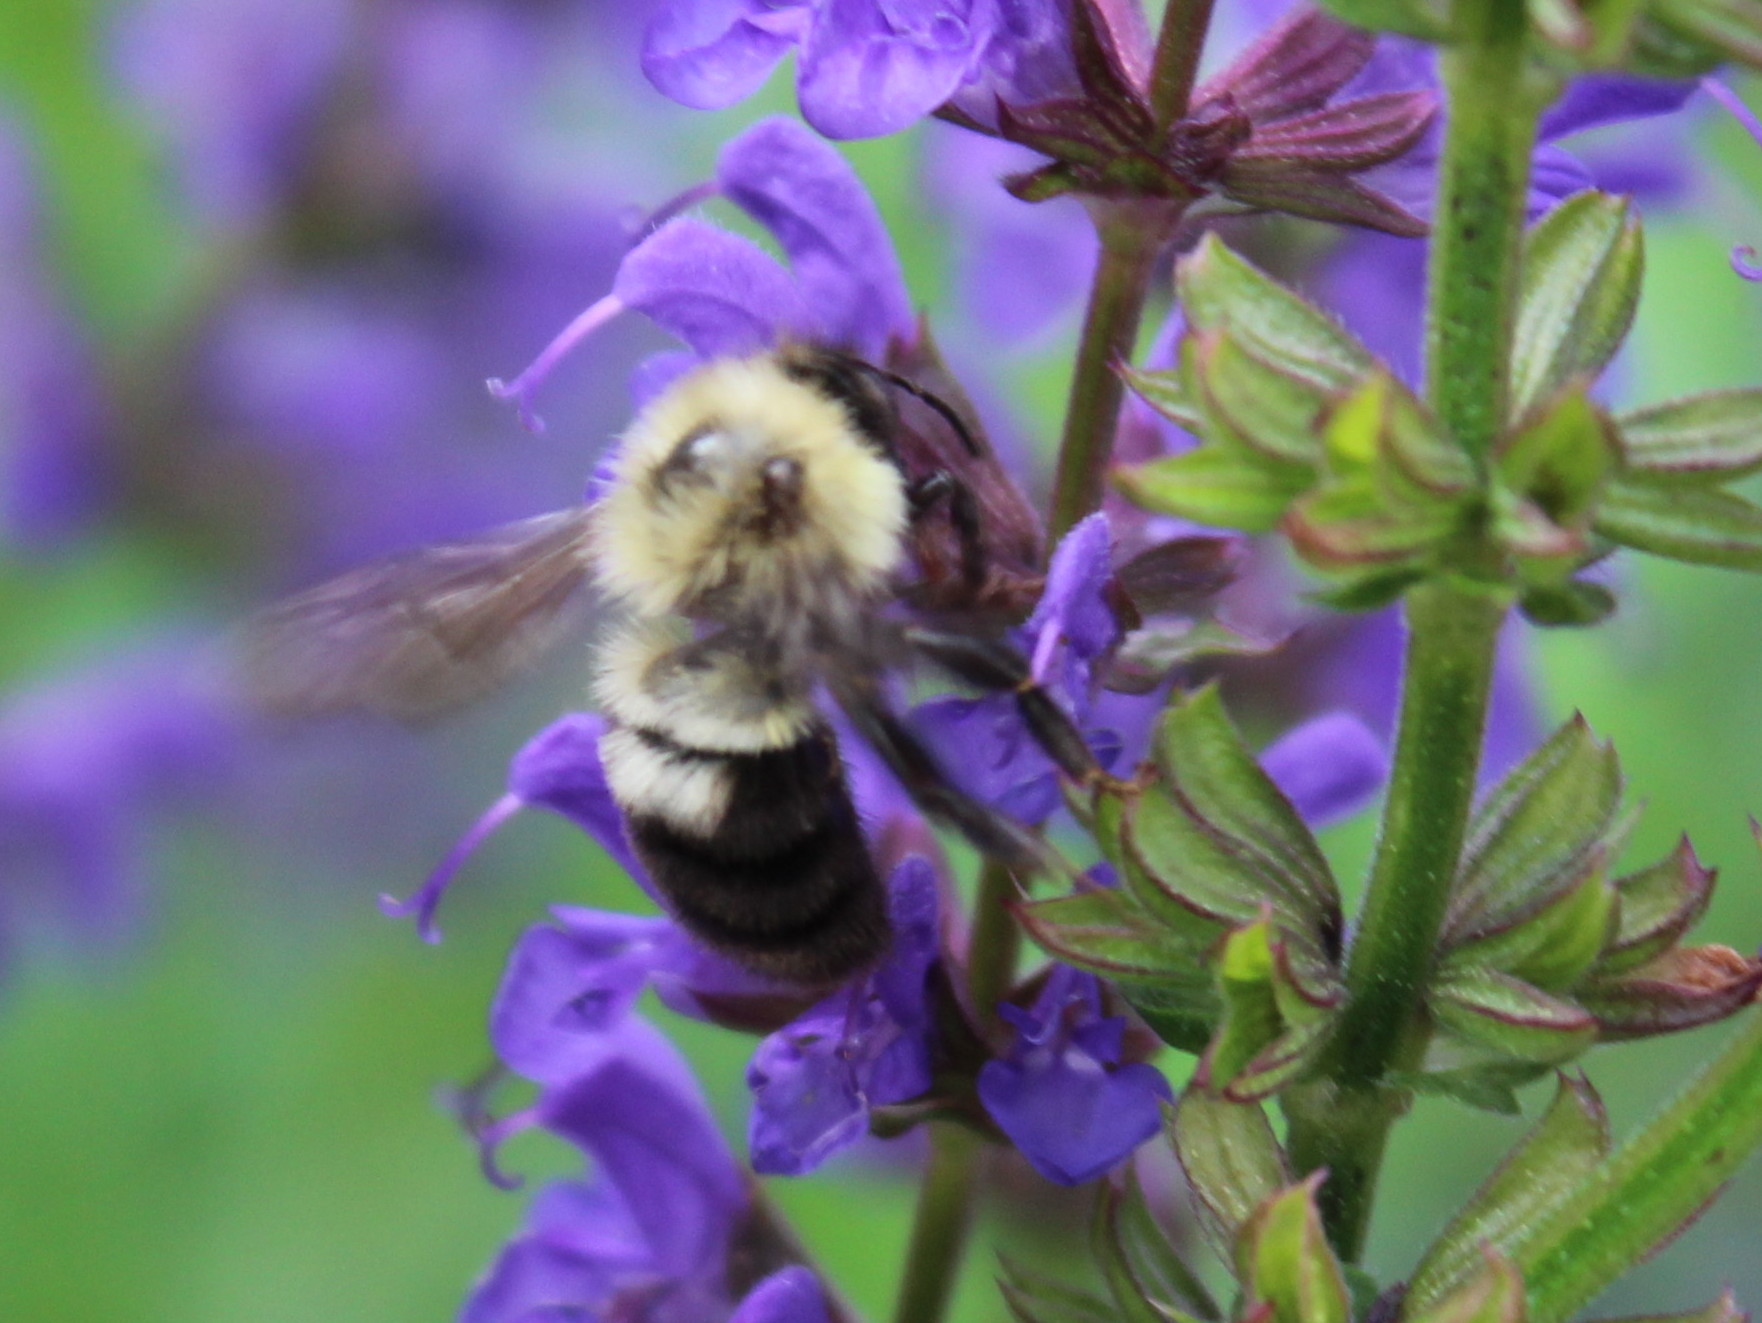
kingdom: Animalia
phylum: Arthropoda
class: Insecta
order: Hymenoptera
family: Apidae
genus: Bombus
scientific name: Bombus bimaculatus
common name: Two-spotted bumble bee
